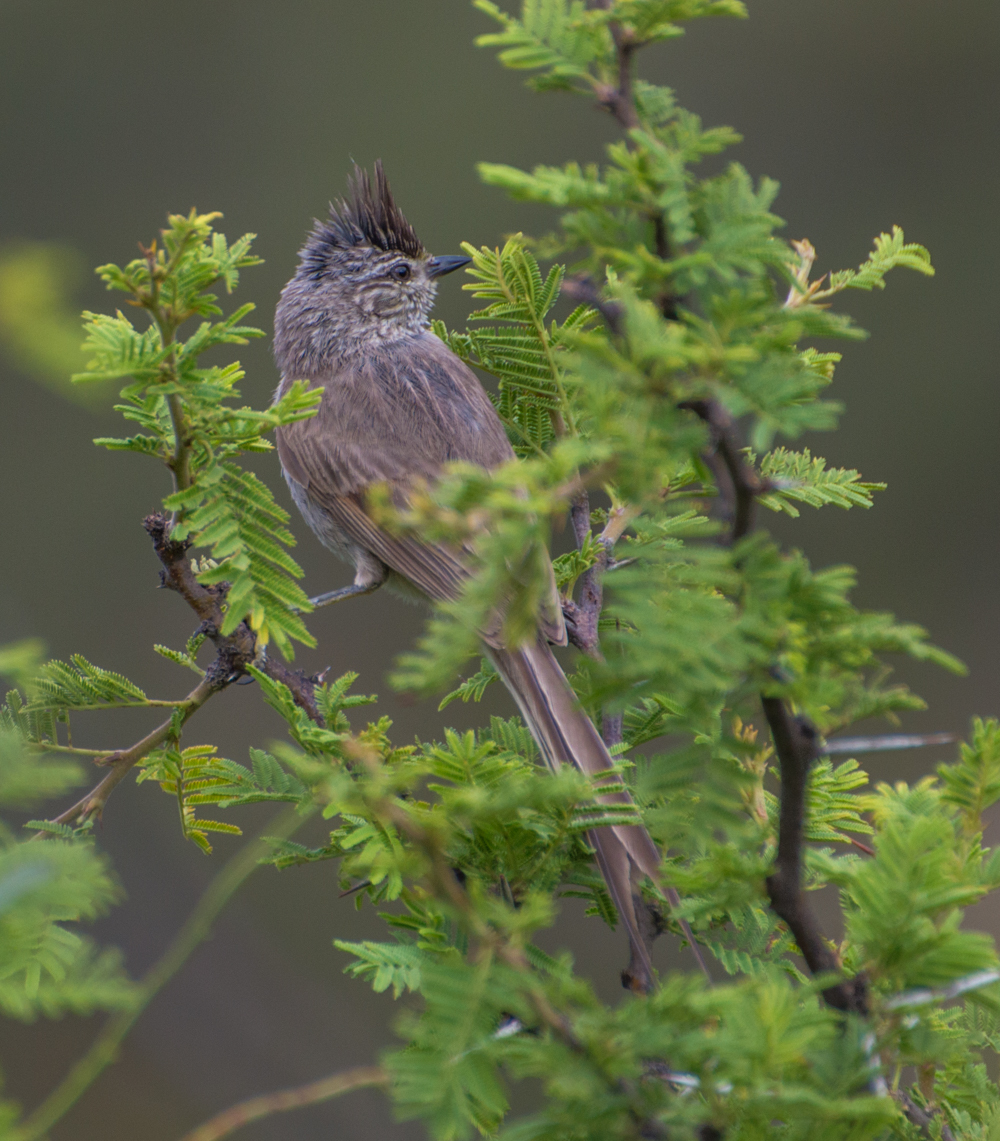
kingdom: Animalia
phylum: Chordata
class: Aves
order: Passeriformes
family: Furnariidae
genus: Leptasthenura
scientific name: Leptasthenura platensis
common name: Tufted tit-spinetail
